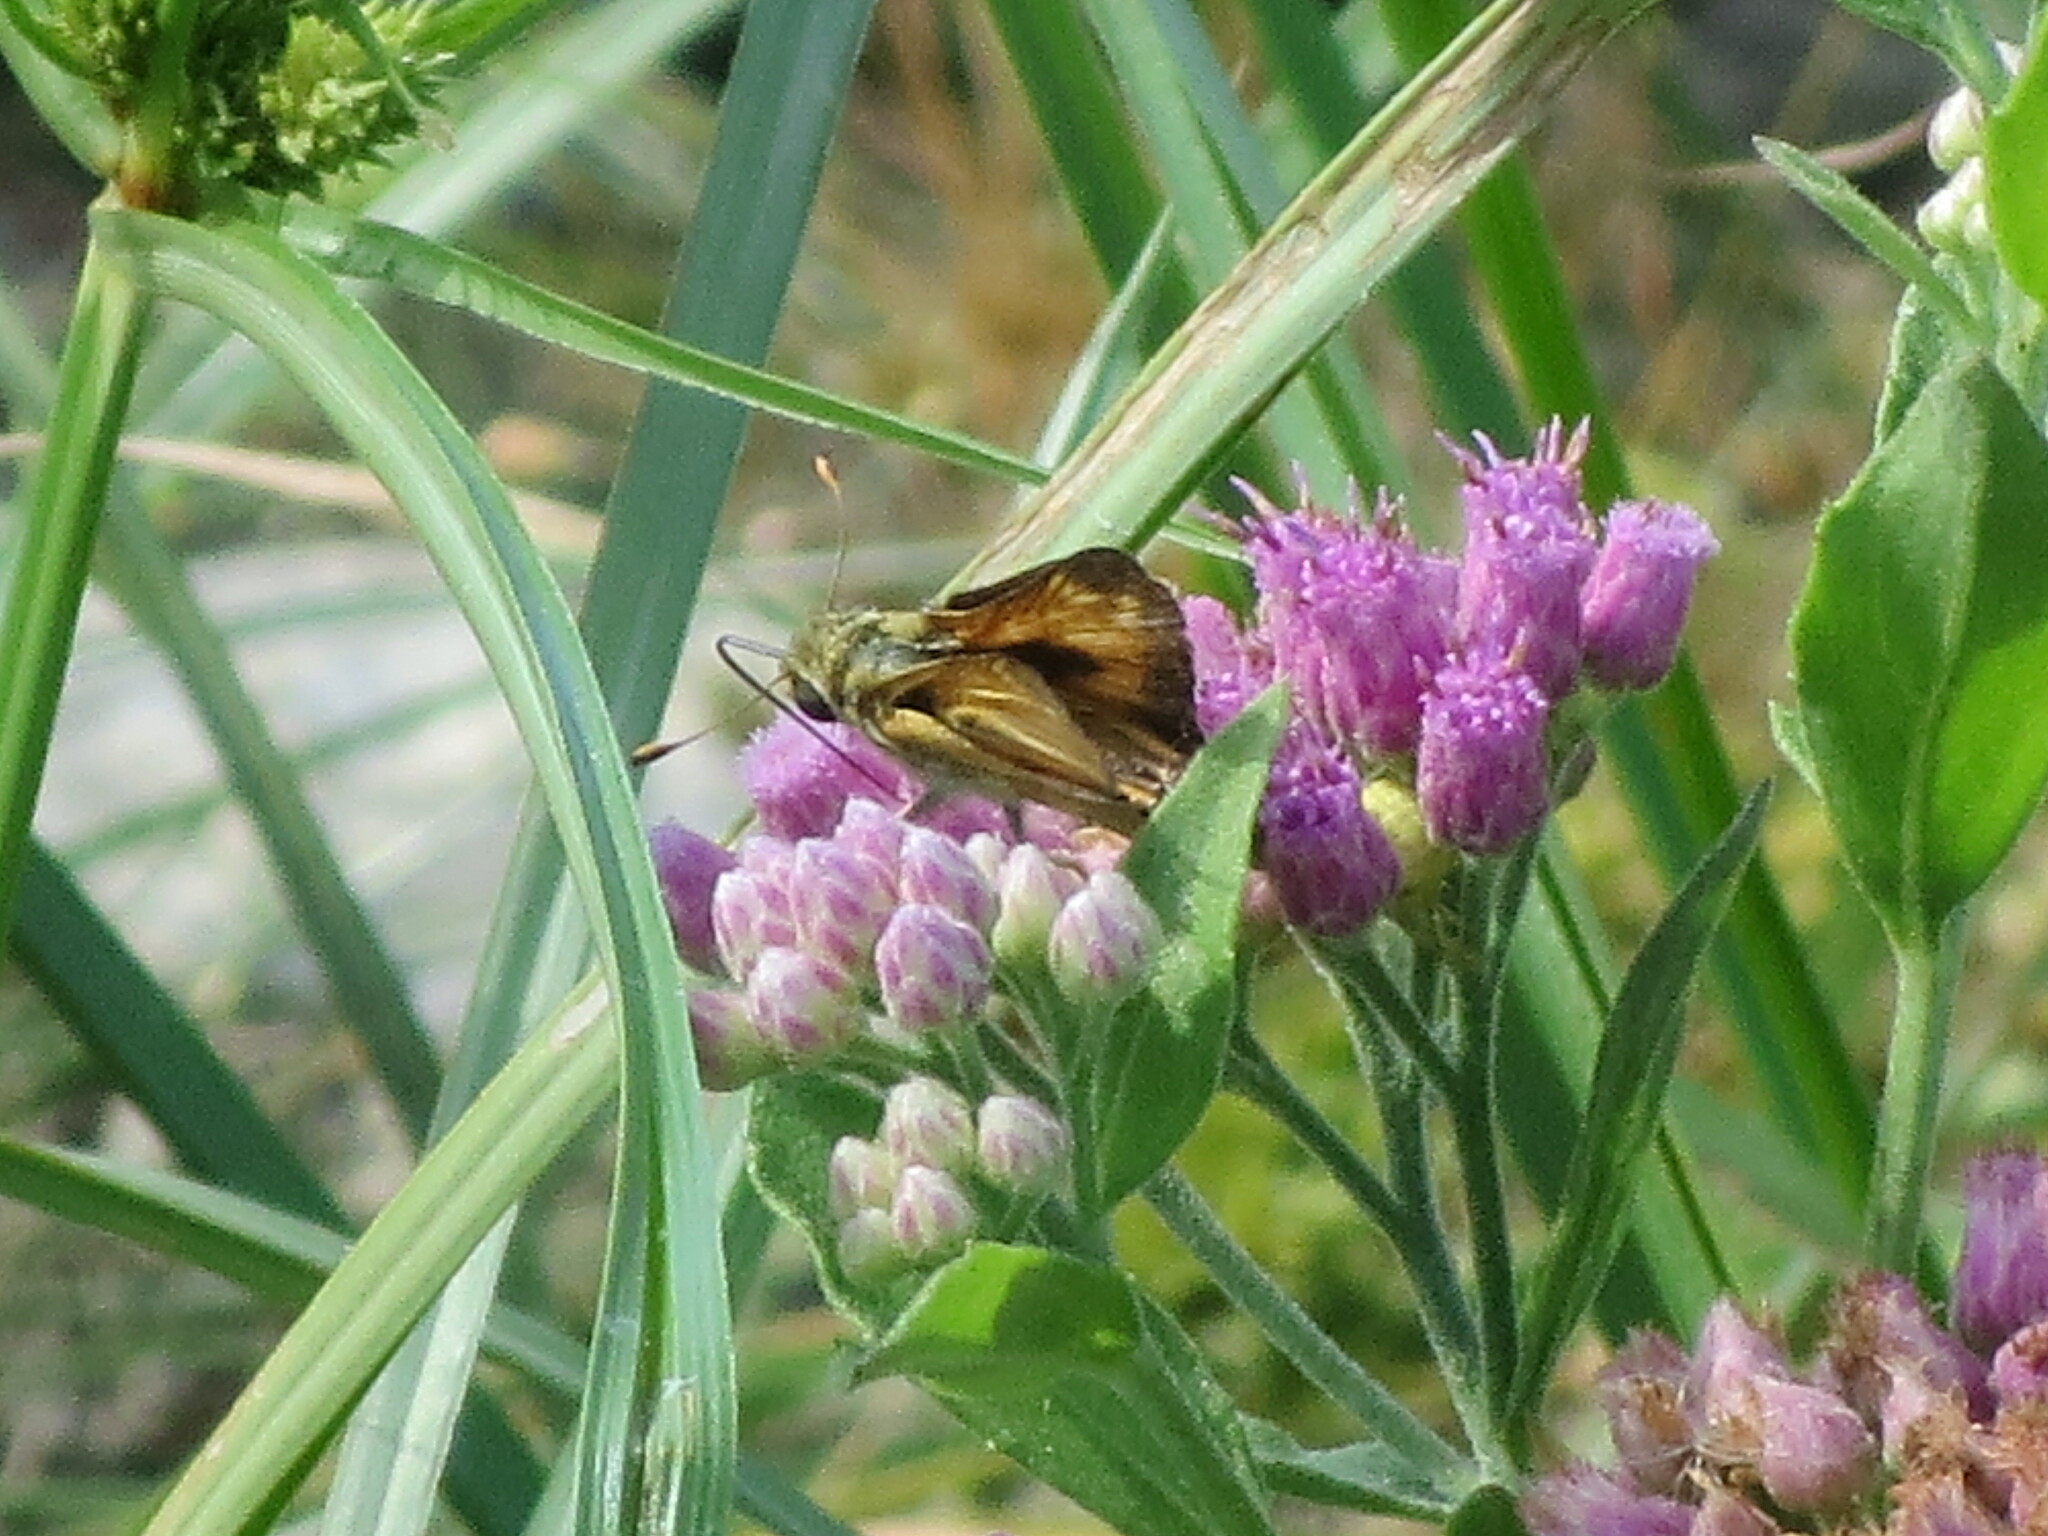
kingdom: Animalia
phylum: Arthropoda
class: Insecta
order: Lepidoptera
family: Hesperiidae
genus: Atalopedes
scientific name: Atalopedes
